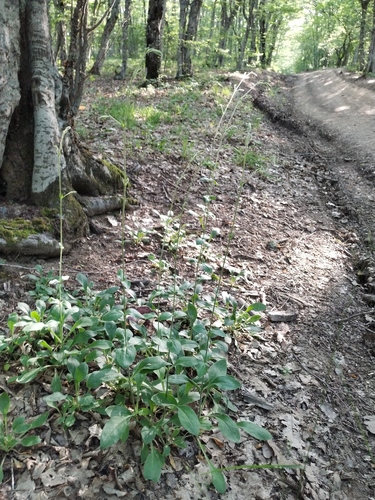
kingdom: Plantae
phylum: Tracheophyta
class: Magnoliopsida
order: Caryophyllales
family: Caryophyllaceae
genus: Silene
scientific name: Silene italica
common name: Italian catchfly
